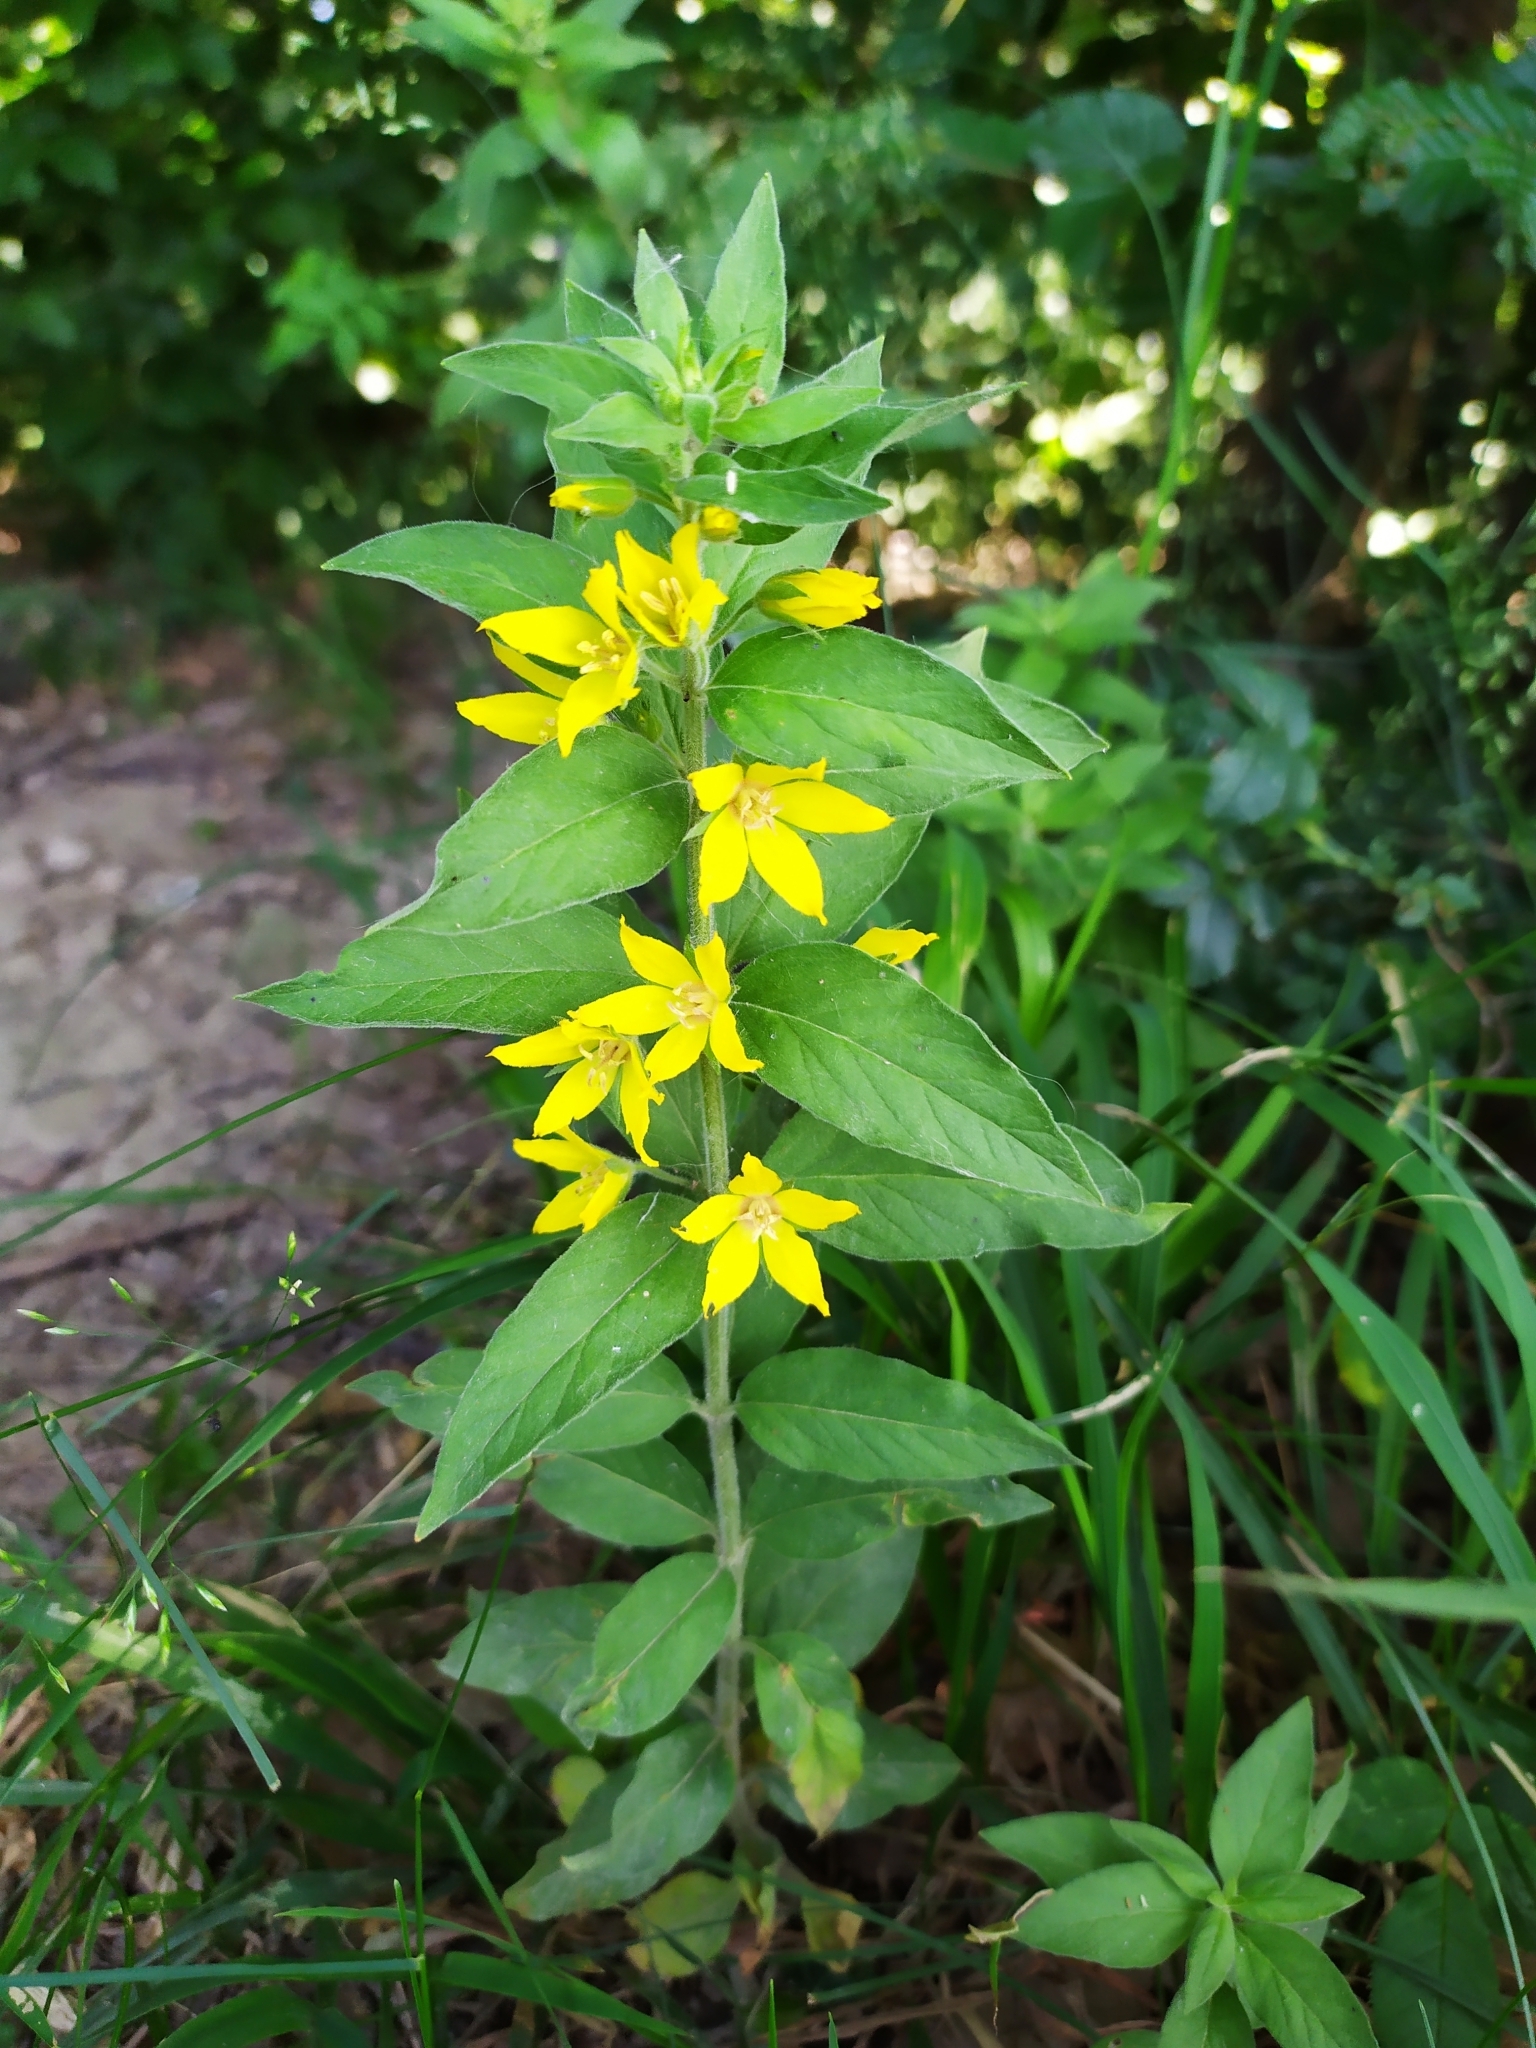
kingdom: Plantae
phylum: Tracheophyta
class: Magnoliopsida
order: Ericales
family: Primulaceae
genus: Lysimachia
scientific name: Lysimachia punctata
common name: Dotted loosestrife
